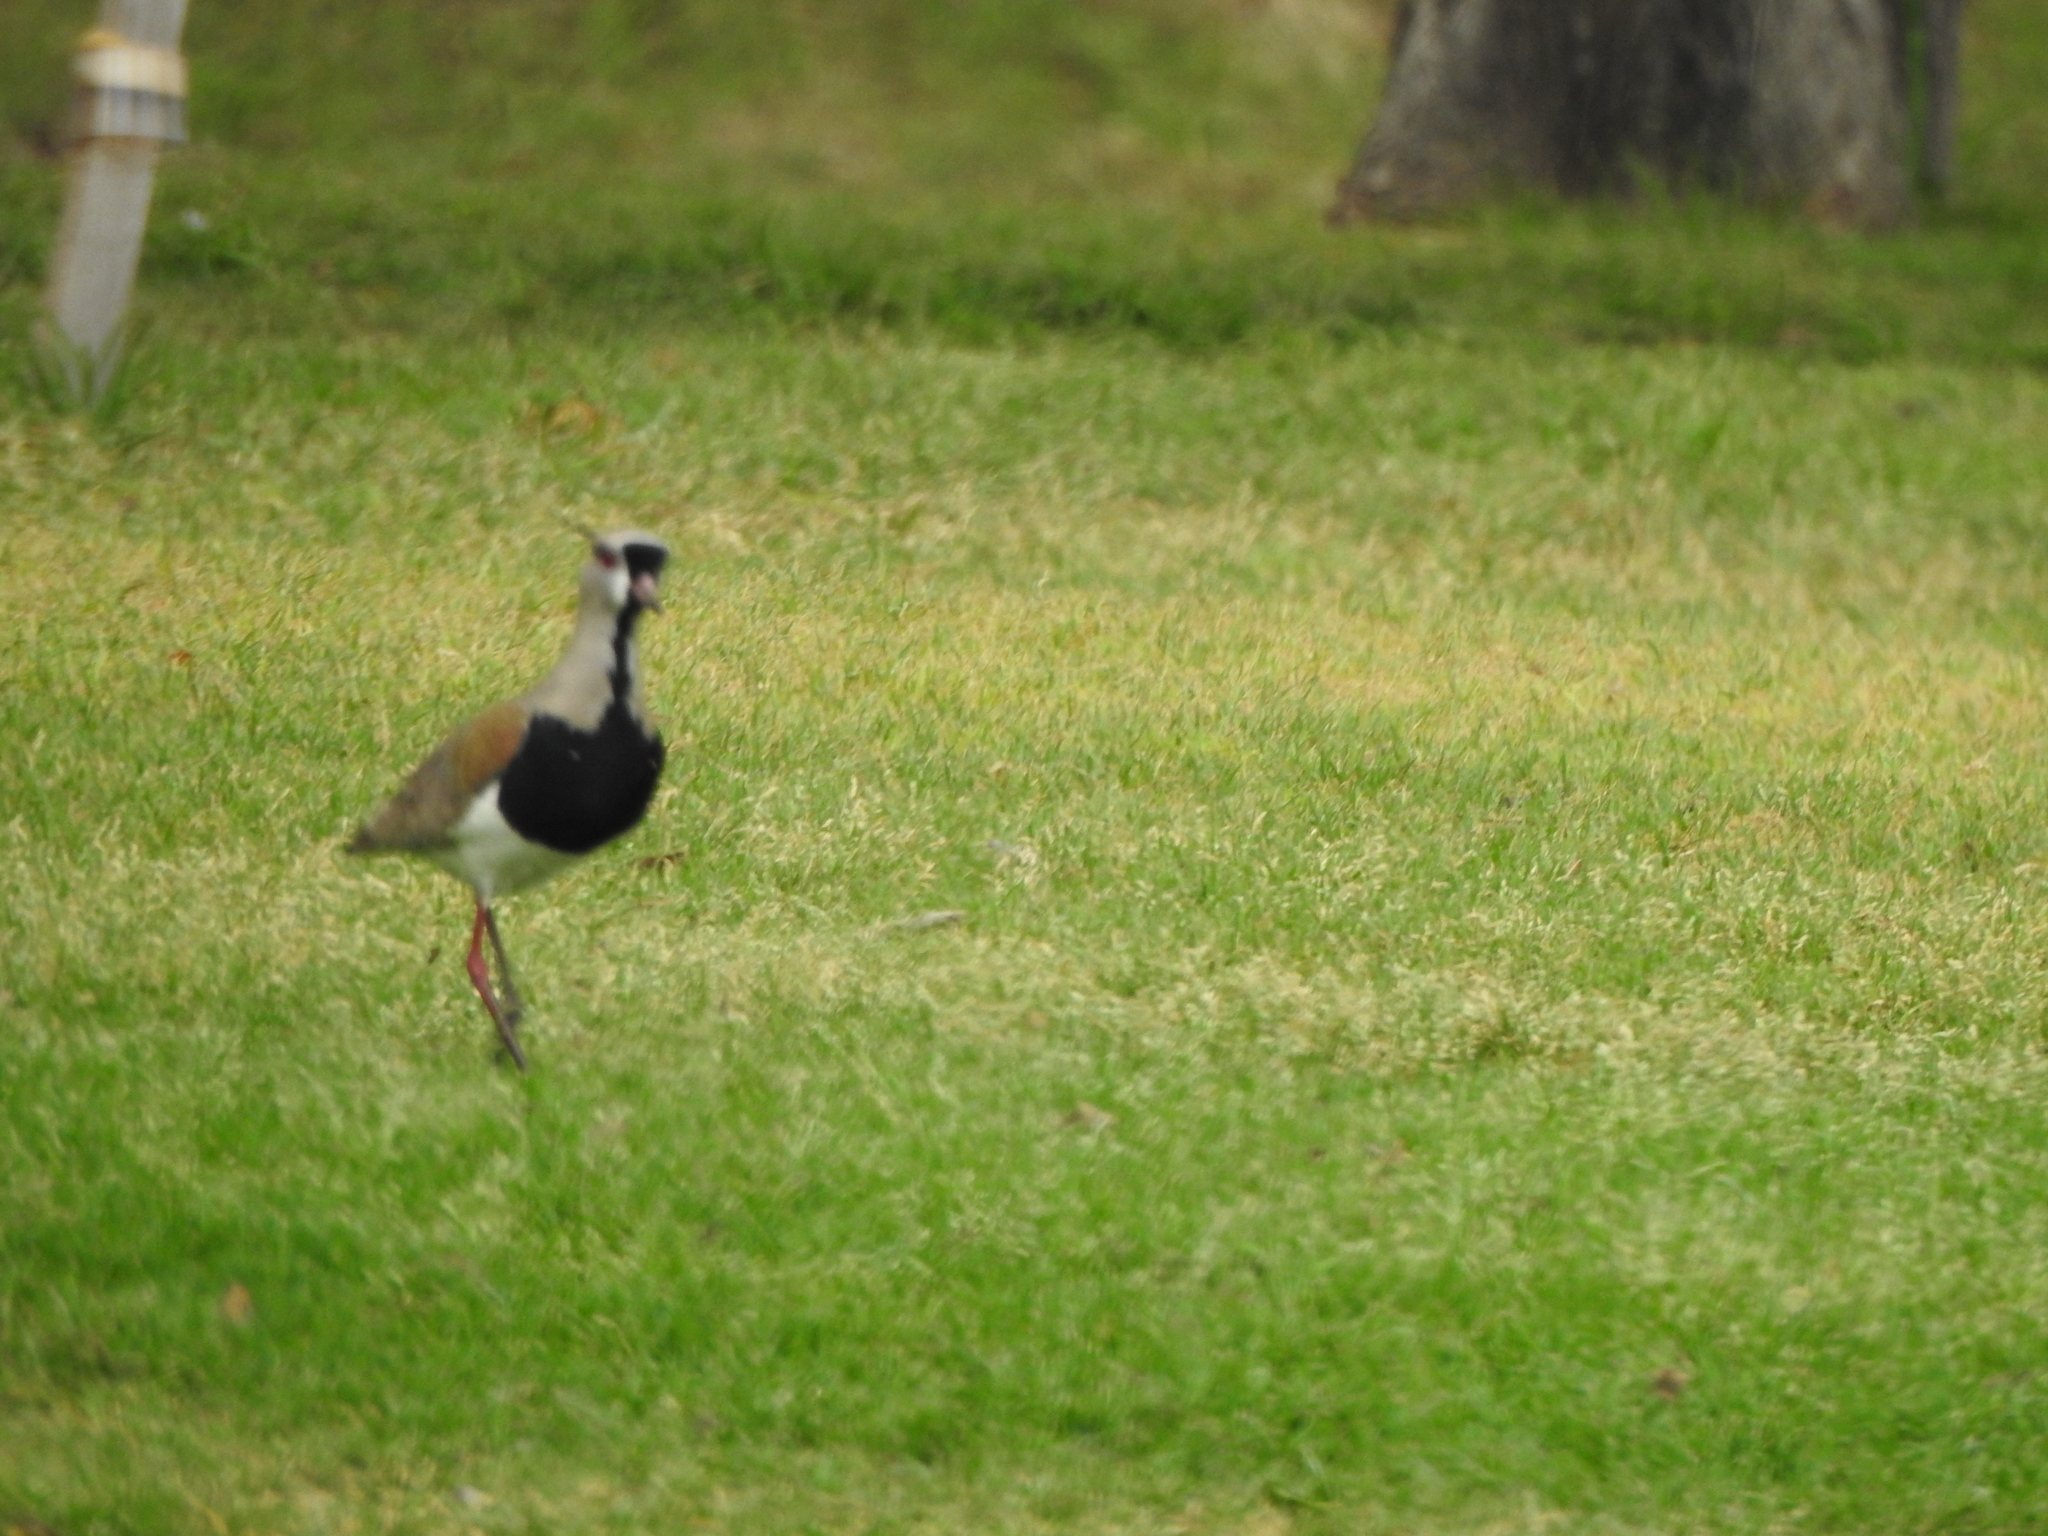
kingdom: Animalia
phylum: Chordata
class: Aves
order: Charadriiformes
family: Charadriidae
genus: Vanellus
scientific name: Vanellus chilensis
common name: Southern lapwing
